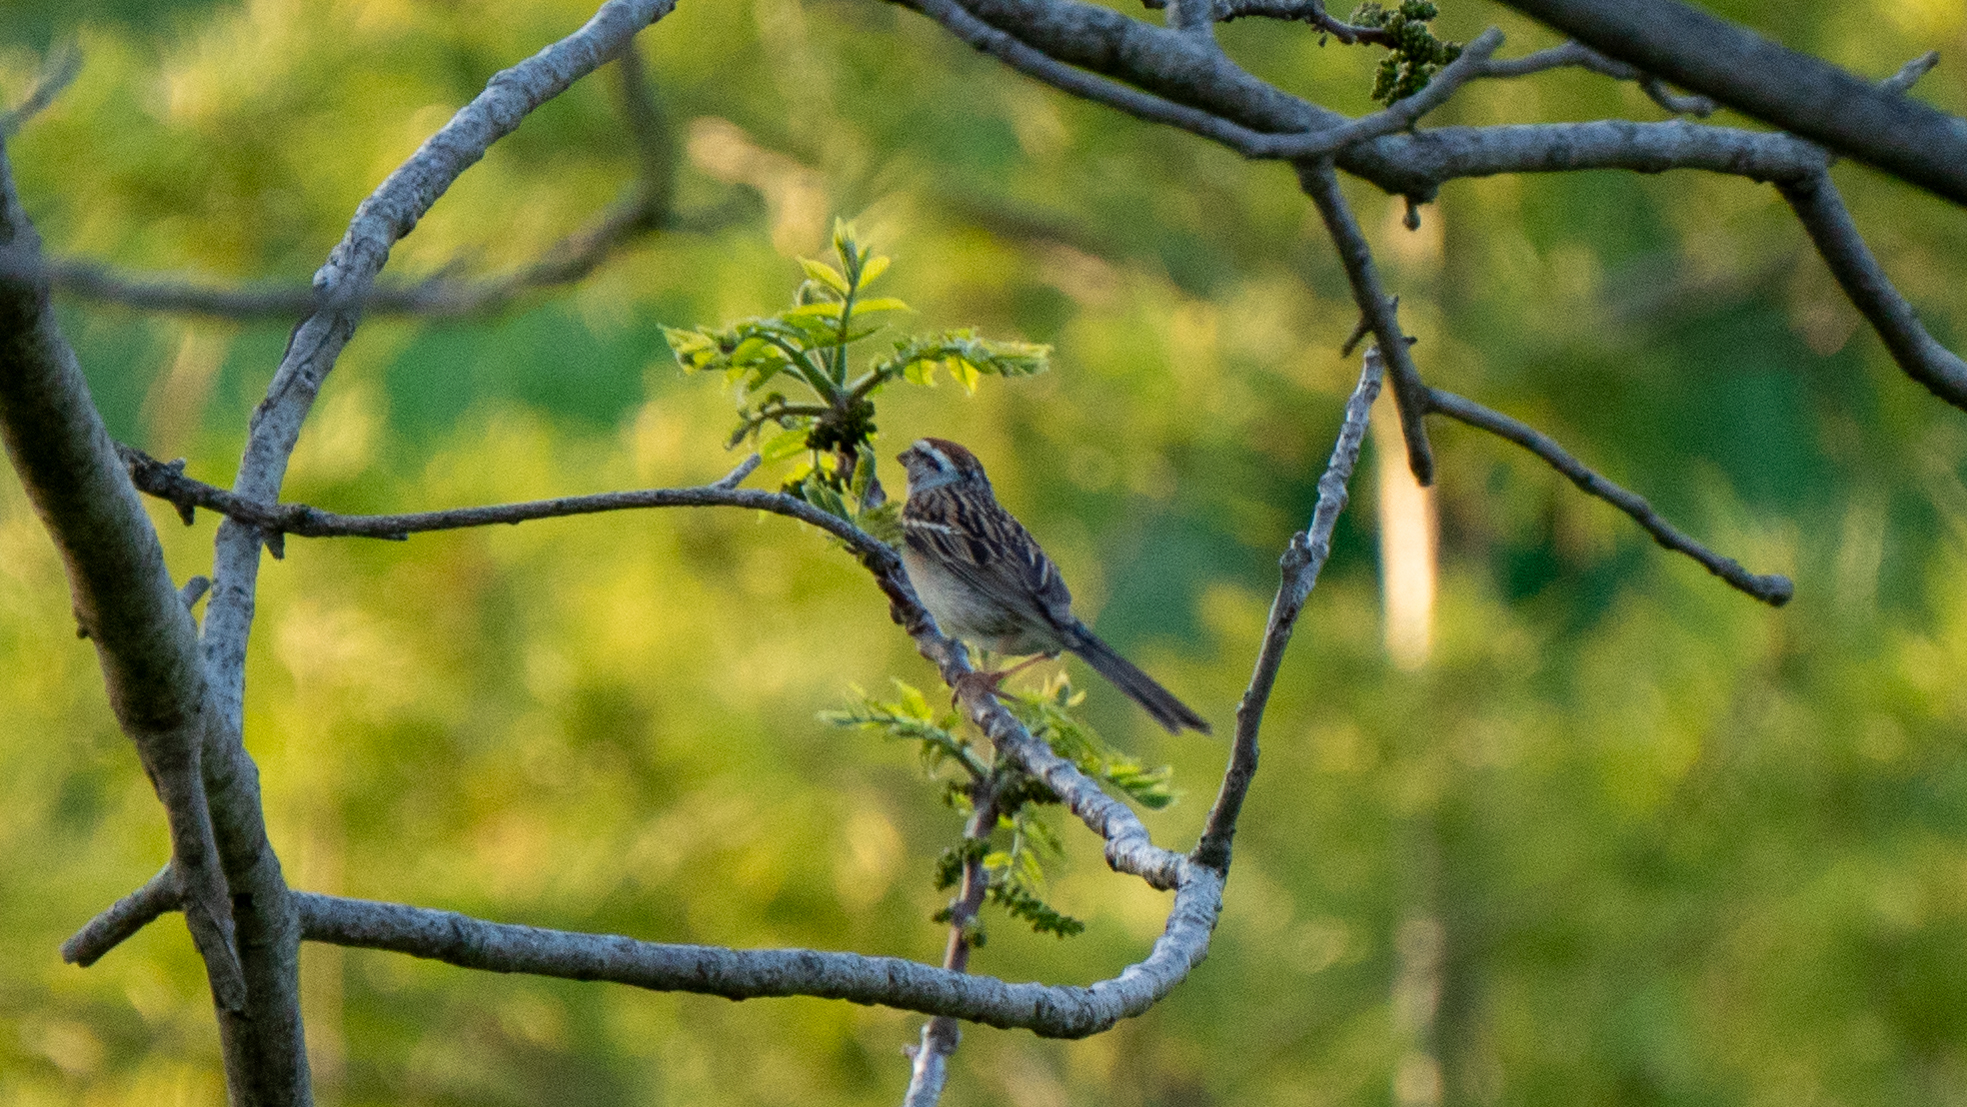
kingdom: Animalia
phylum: Chordata
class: Aves
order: Passeriformes
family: Passerellidae
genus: Spizella
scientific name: Spizella passerina
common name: Chipping sparrow
